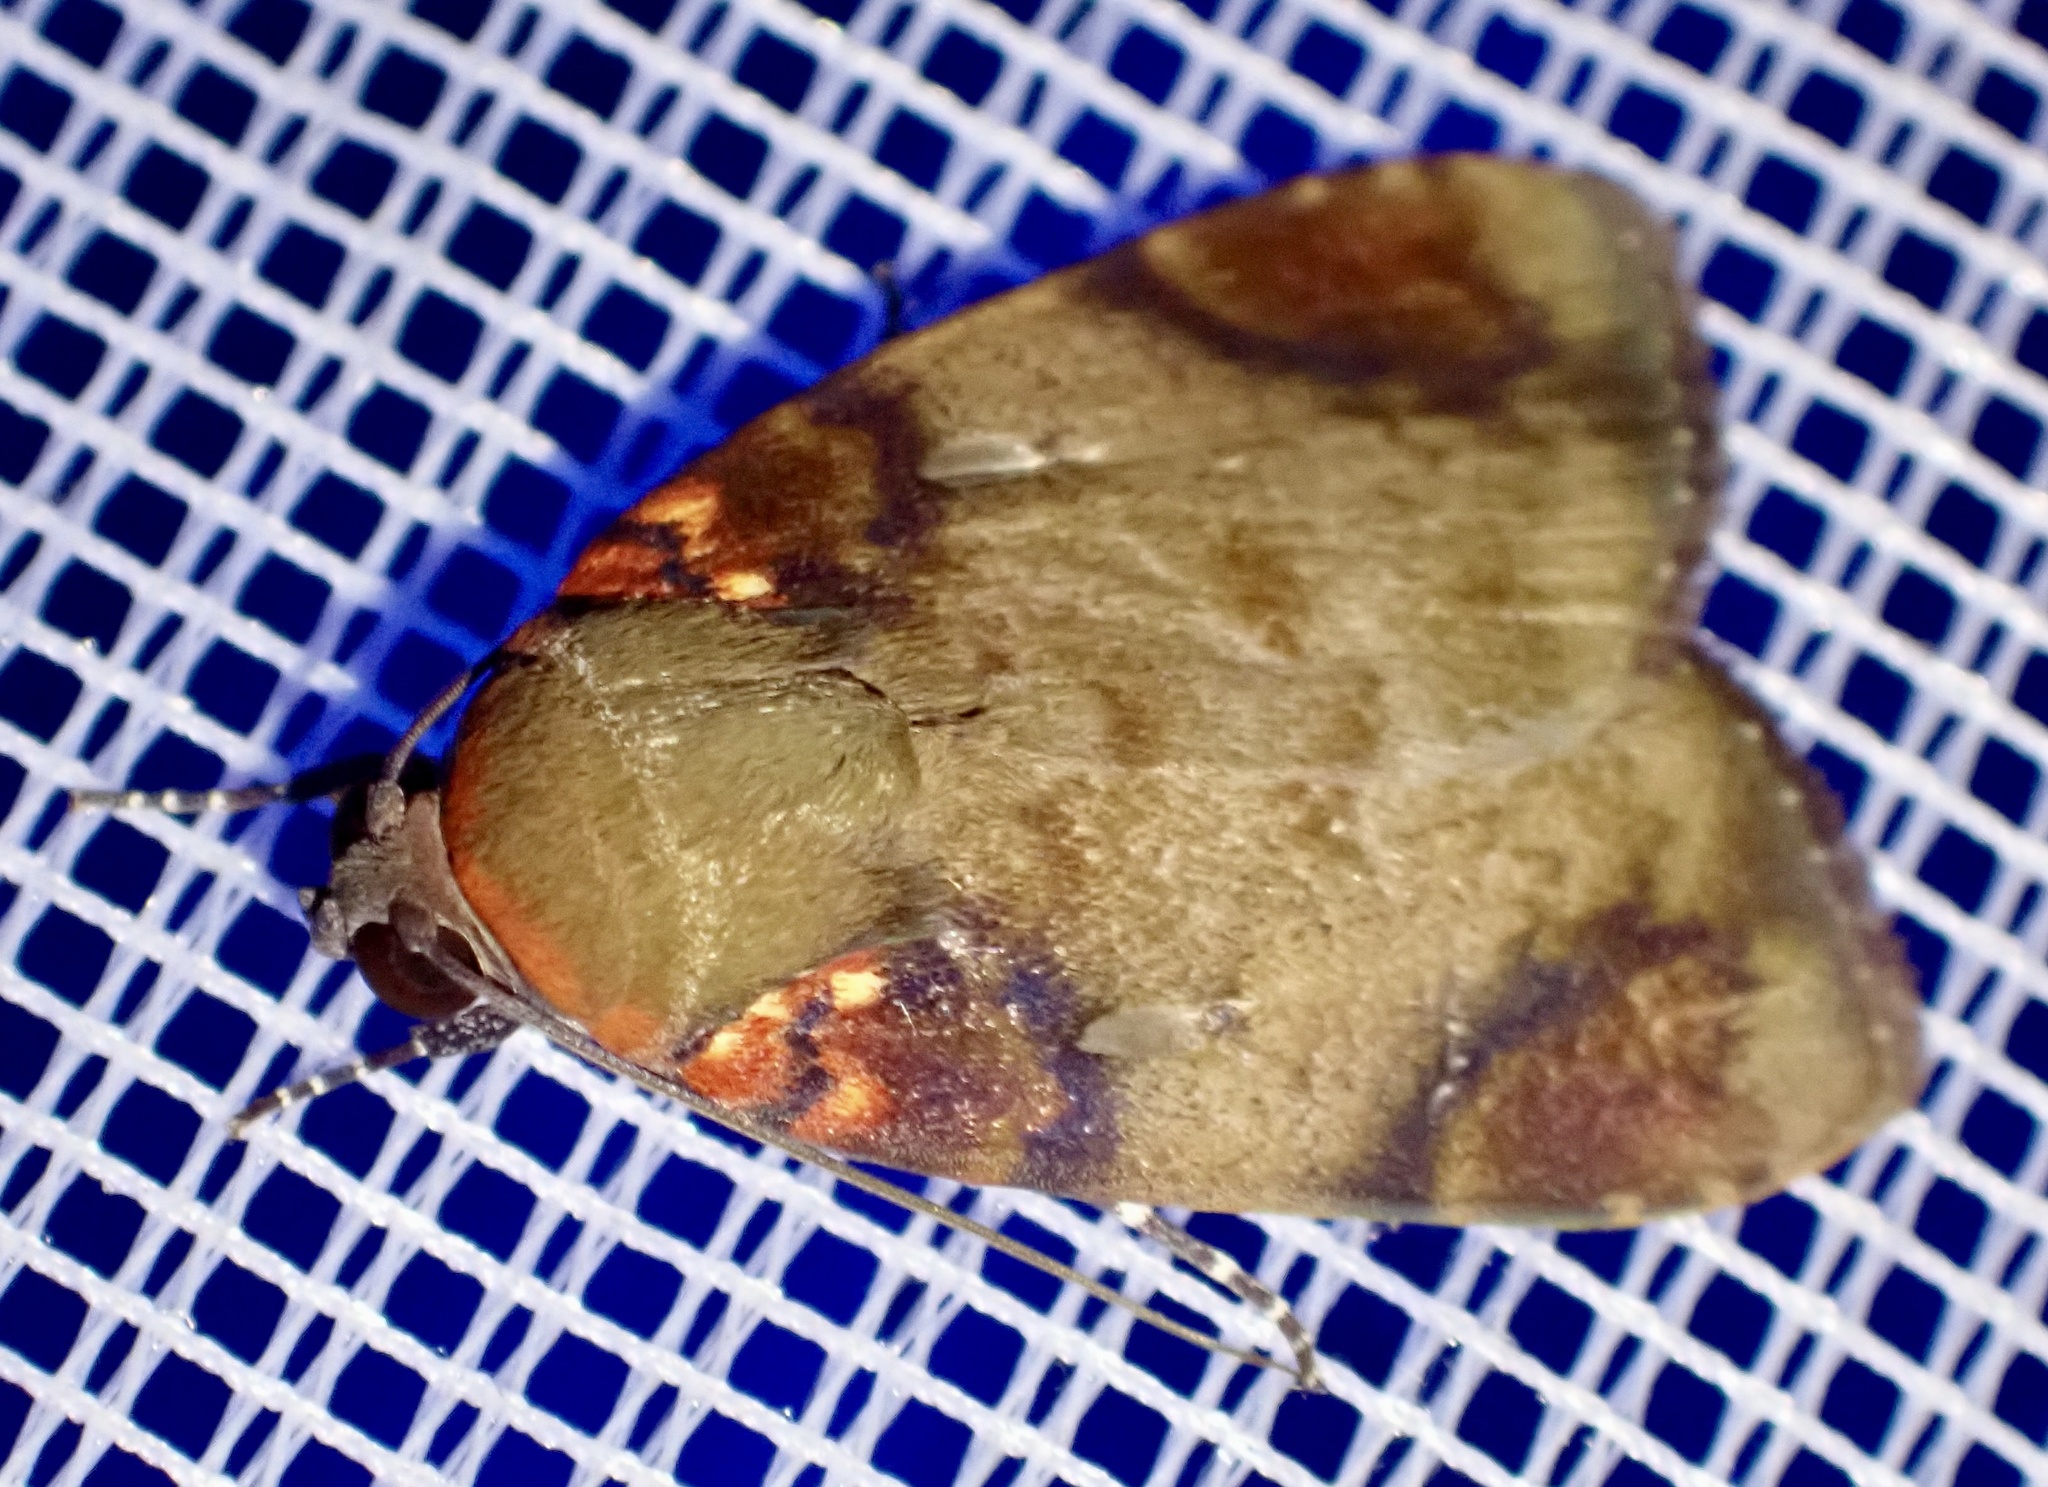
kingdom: Animalia
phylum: Arthropoda
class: Insecta
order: Lepidoptera
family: Nolidae
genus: Maceda
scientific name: Maceda ignefumosa
